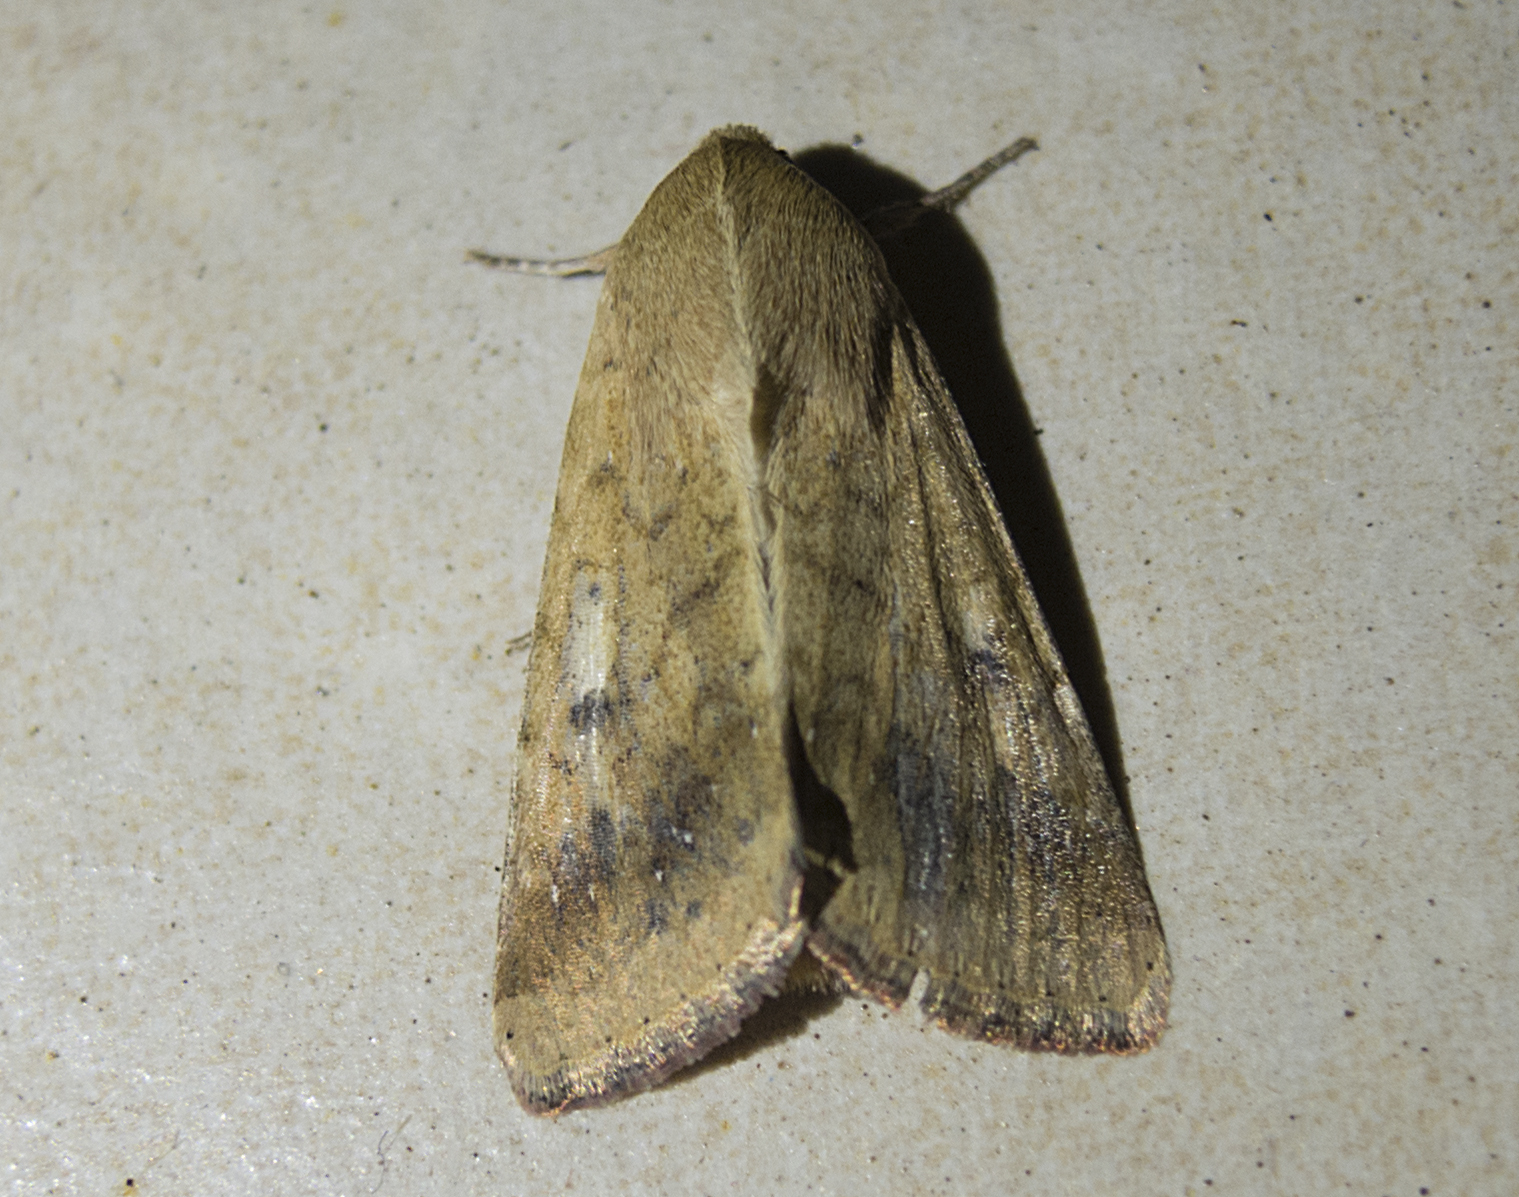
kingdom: Animalia
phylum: Arthropoda
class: Insecta
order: Lepidoptera
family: Noctuidae
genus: Helicoverpa
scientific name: Helicoverpa armigera
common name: Cotton bollworm
